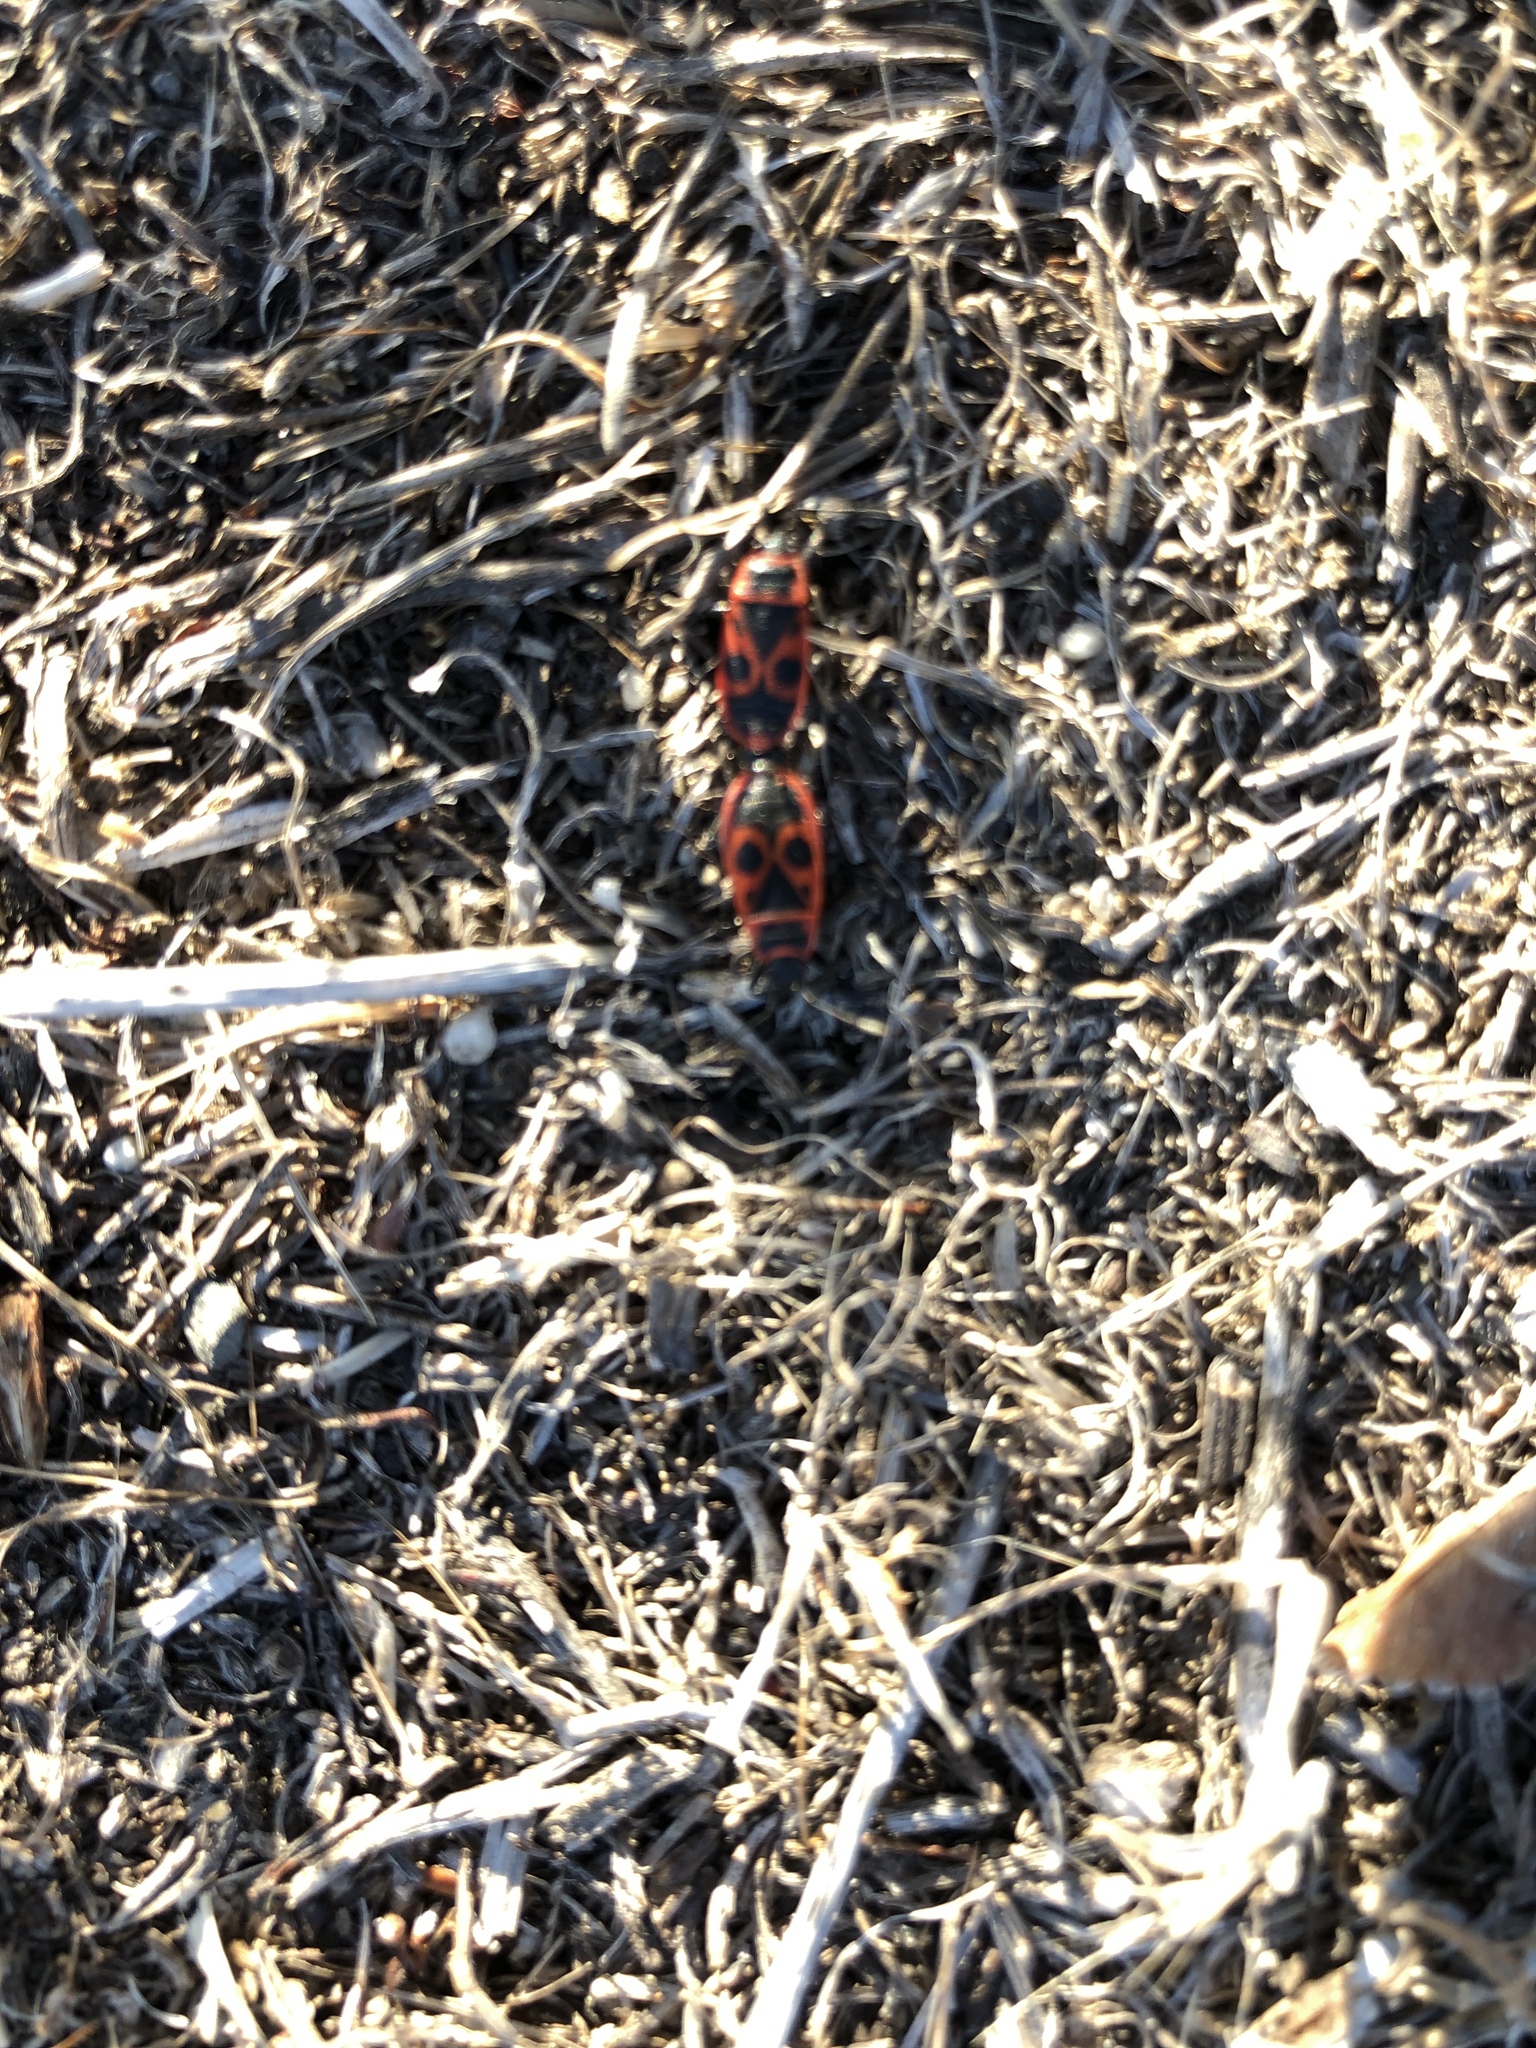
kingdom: Animalia
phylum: Arthropoda
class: Insecta
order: Hemiptera
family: Pyrrhocoridae
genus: Pyrrhocoris
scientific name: Pyrrhocoris apterus
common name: Firebug
